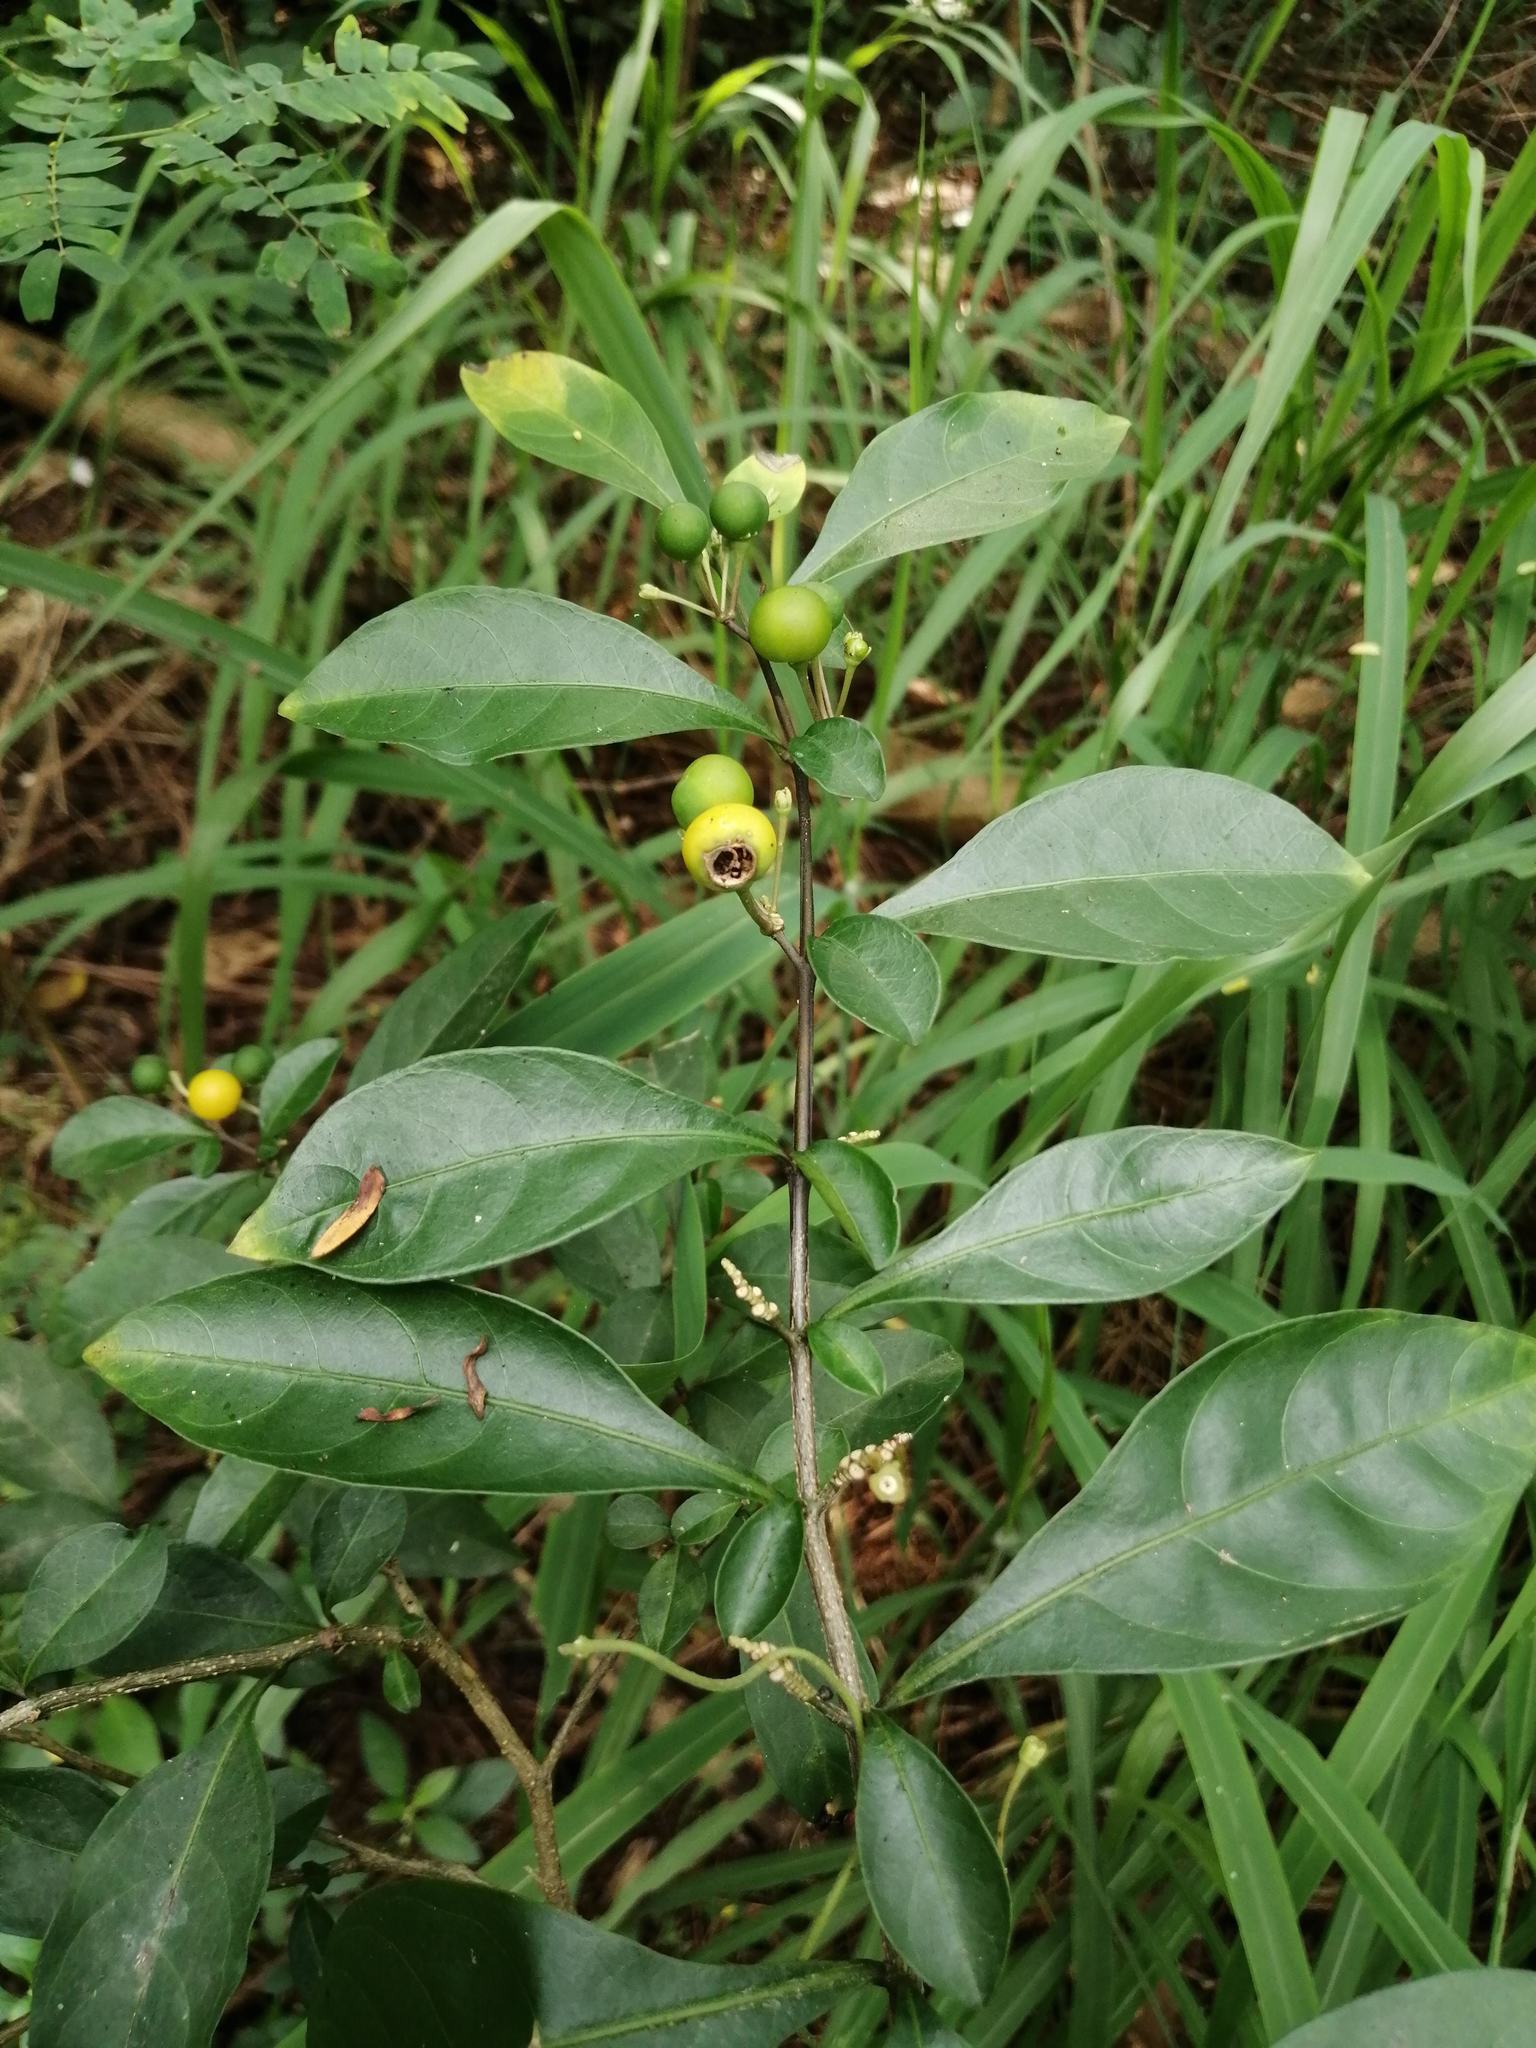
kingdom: Plantae
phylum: Tracheophyta
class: Magnoliopsida
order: Solanales
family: Solanaceae
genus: Solanum
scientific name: Solanum diphyllum
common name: Twoleaf nightshade
